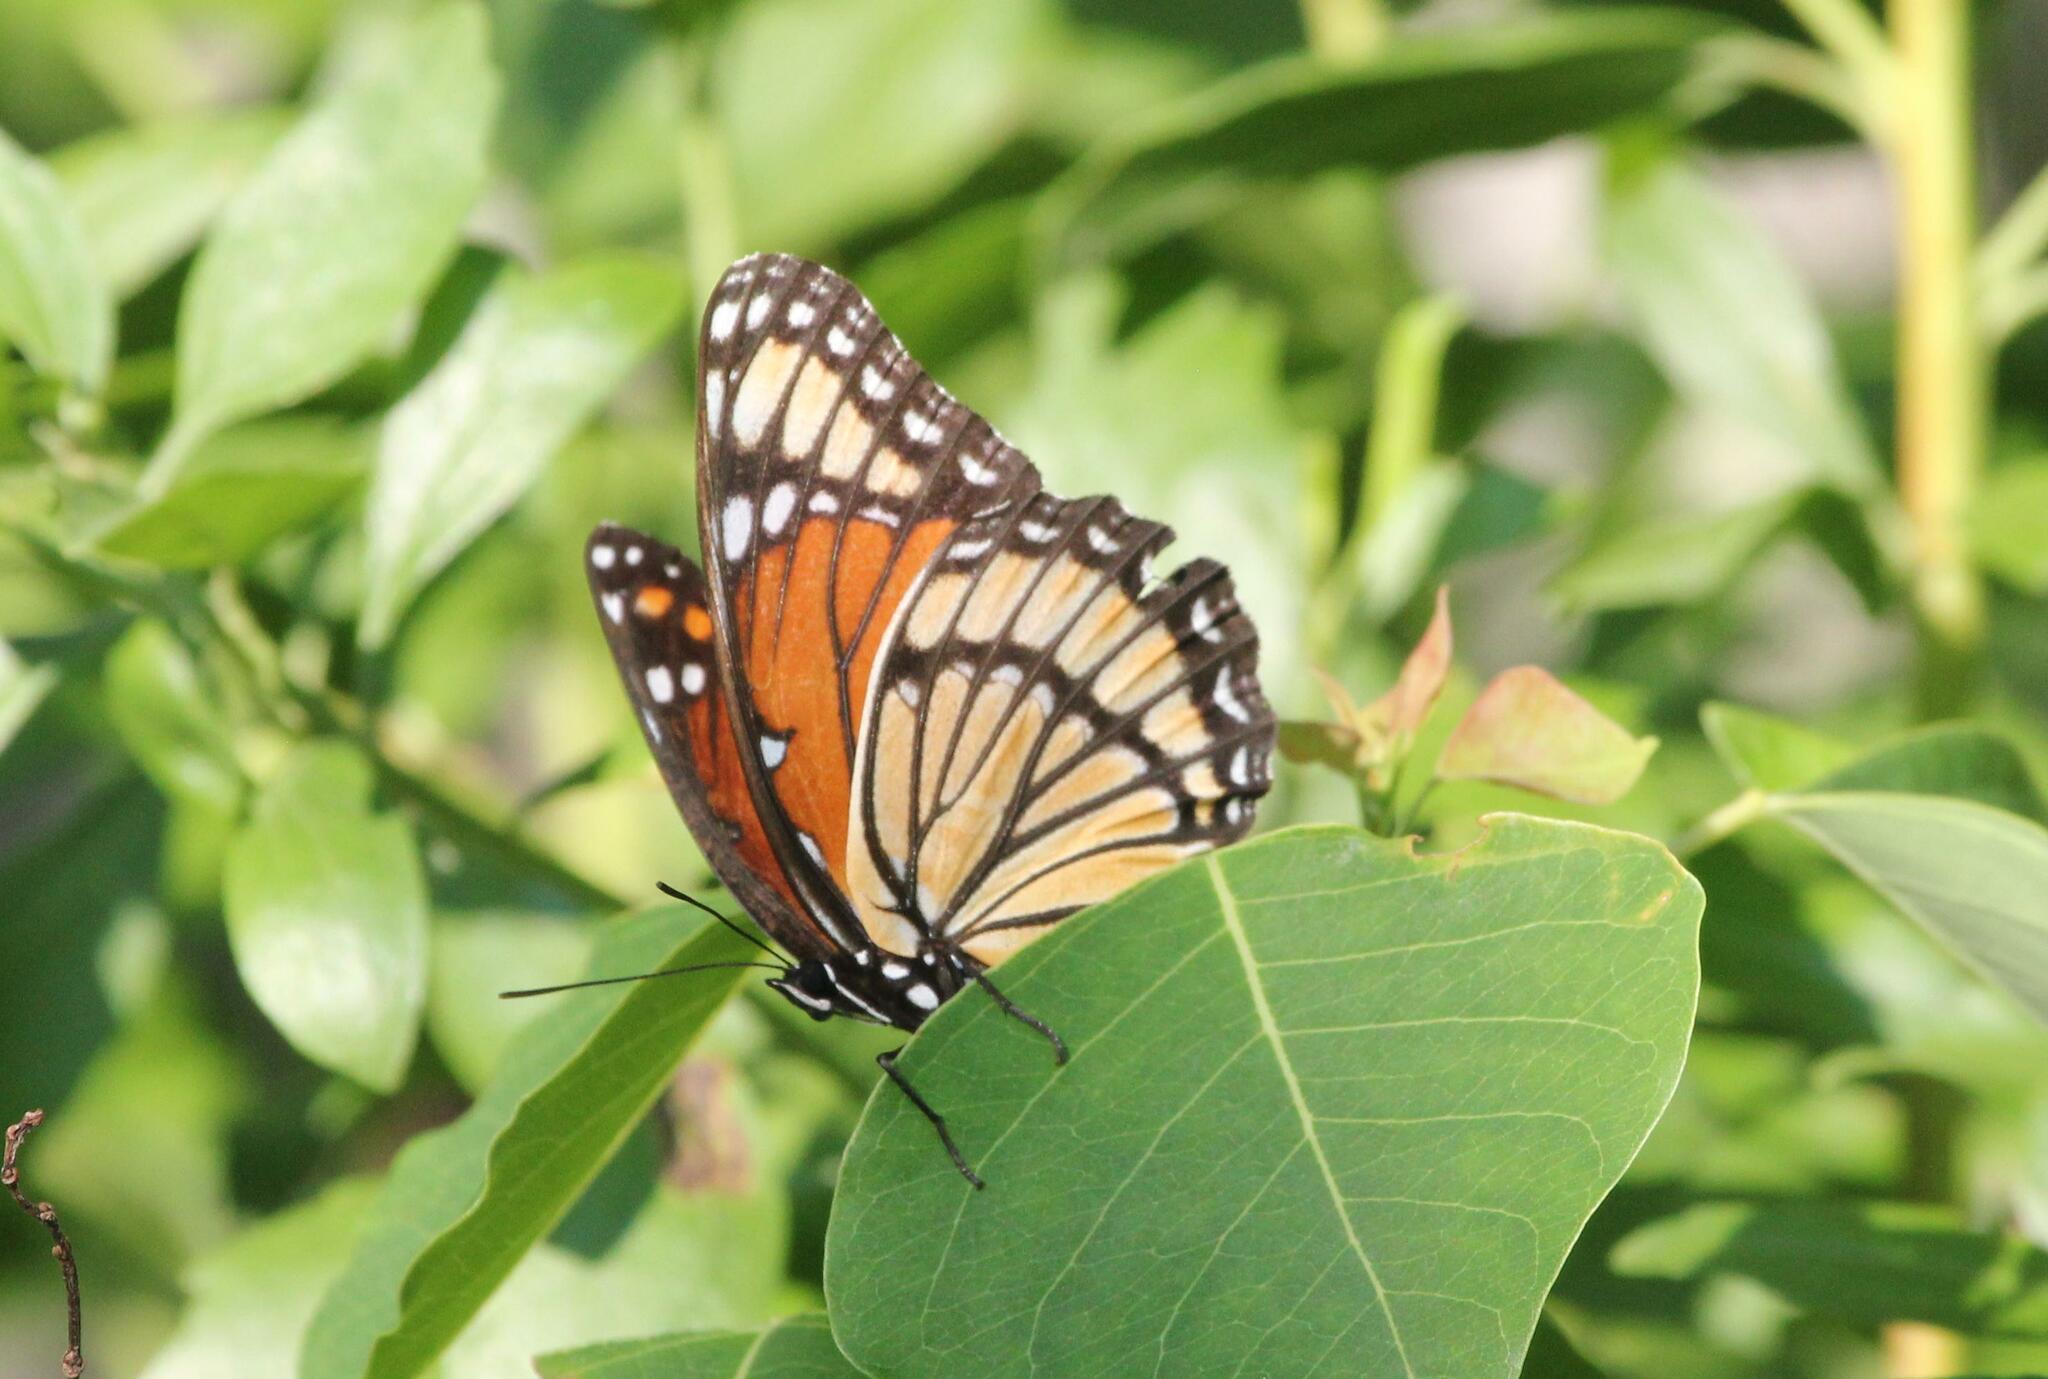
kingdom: Animalia
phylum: Arthropoda
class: Insecta
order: Lepidoptera
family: Nymphalidae
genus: Limenitis
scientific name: Limenitis archippus
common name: Viceroy
